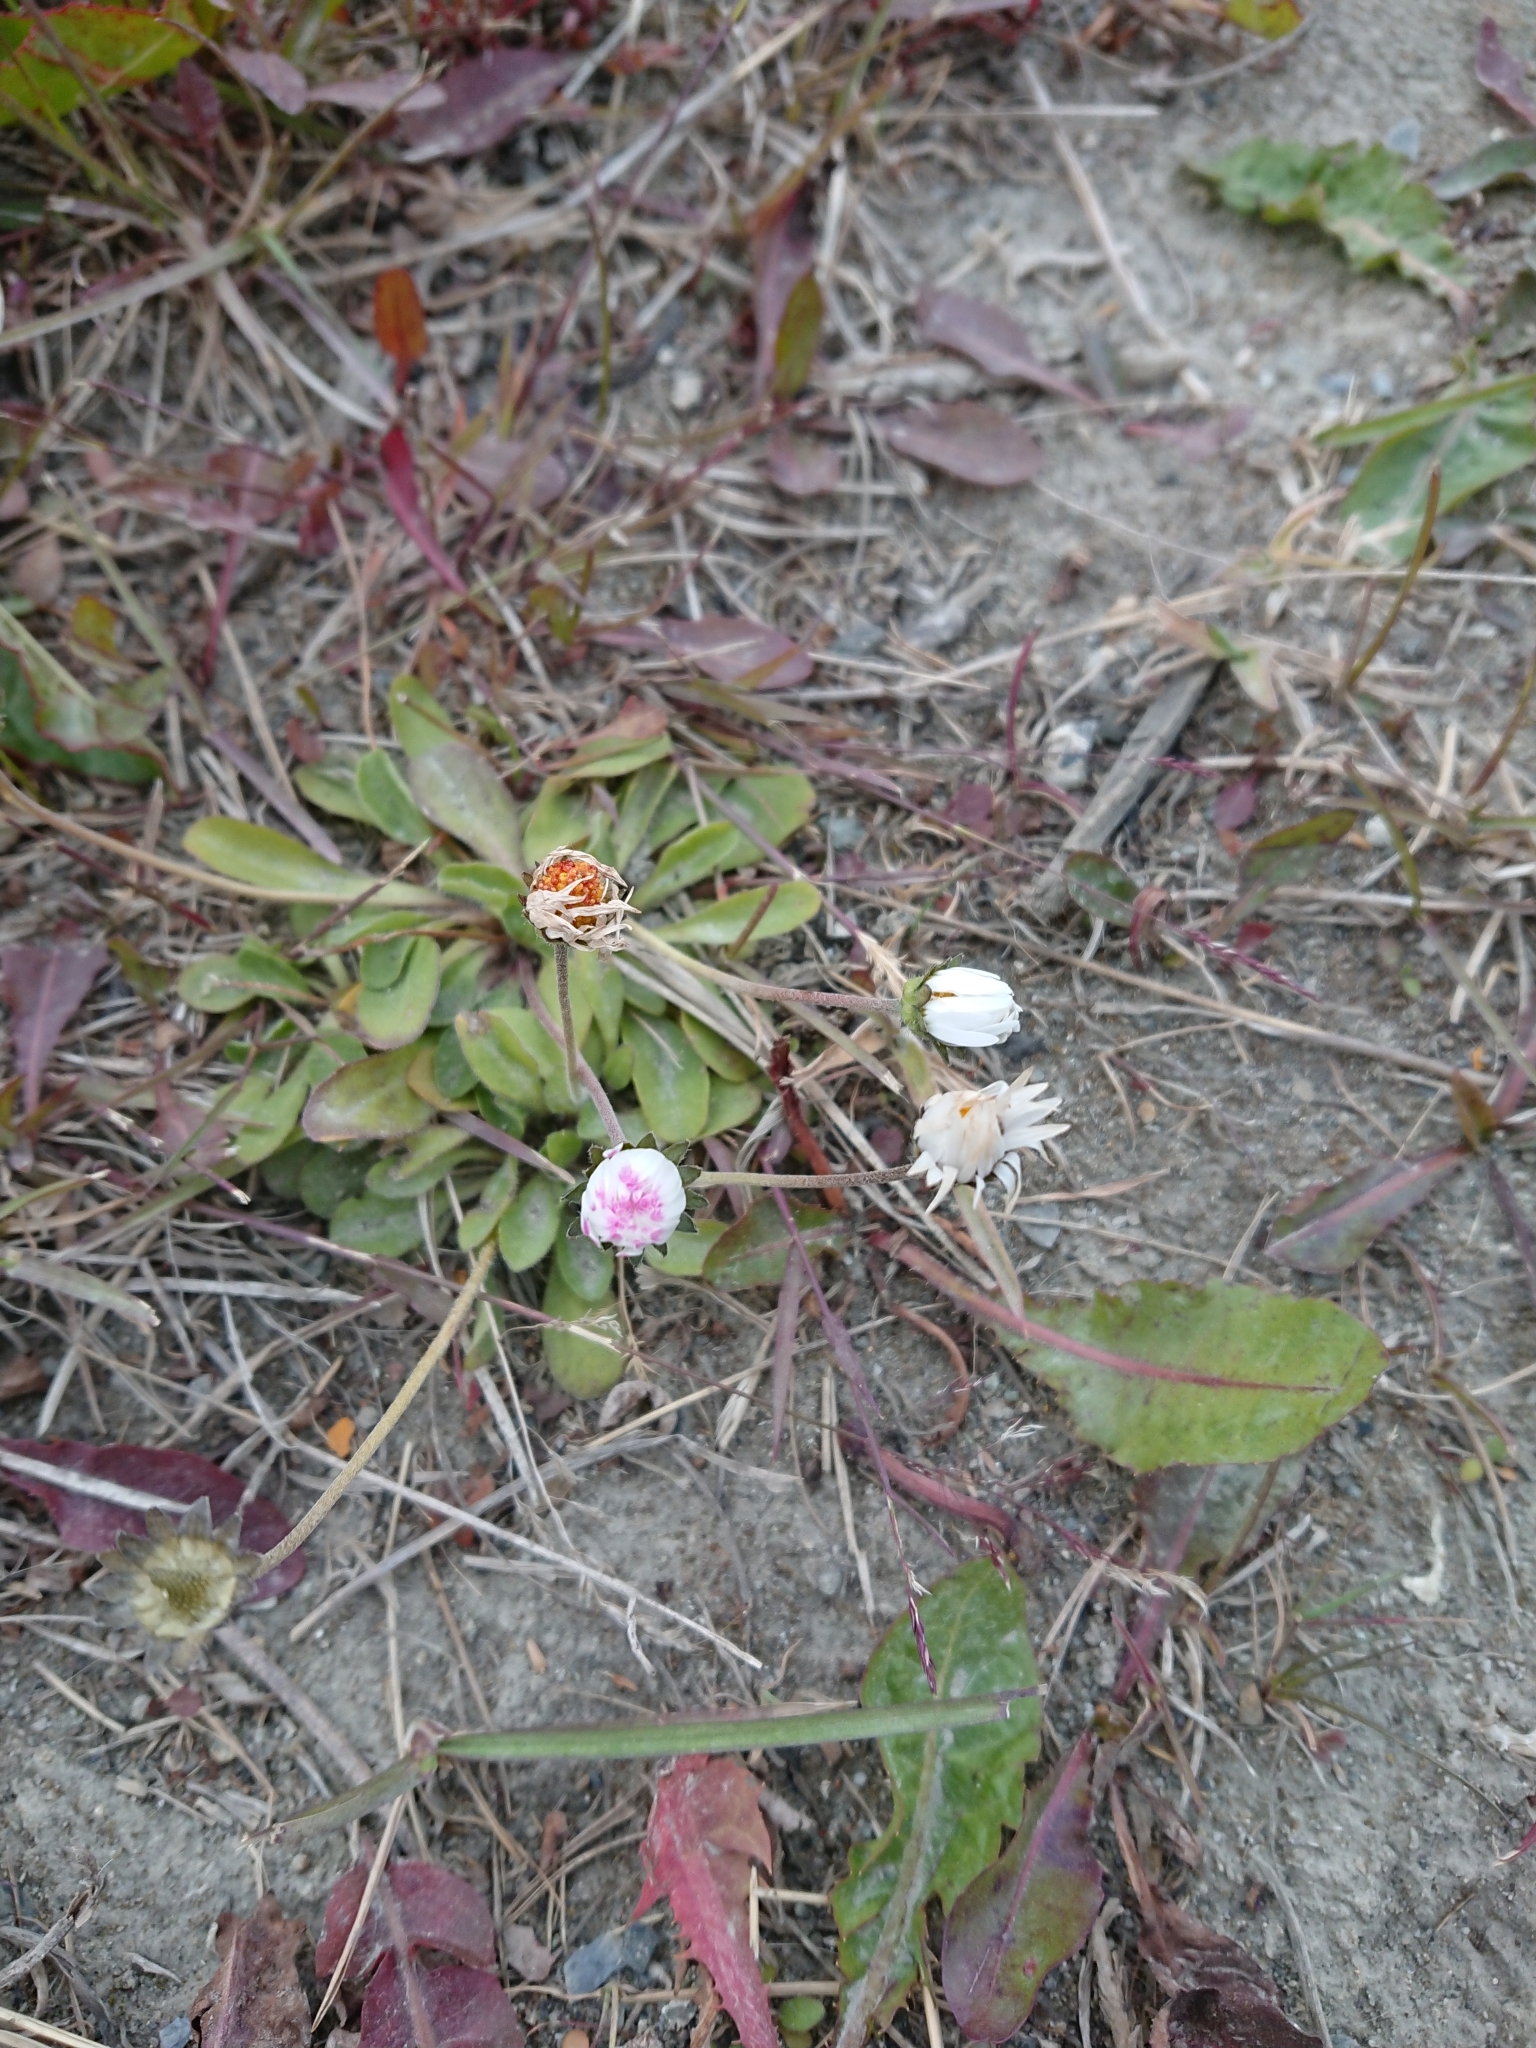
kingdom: Plantae
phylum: Tracheophyta
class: Magnoliopsida
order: Asterales
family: Asteraceae
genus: Bellis
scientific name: Bellis perennis
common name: Lawndaisy
